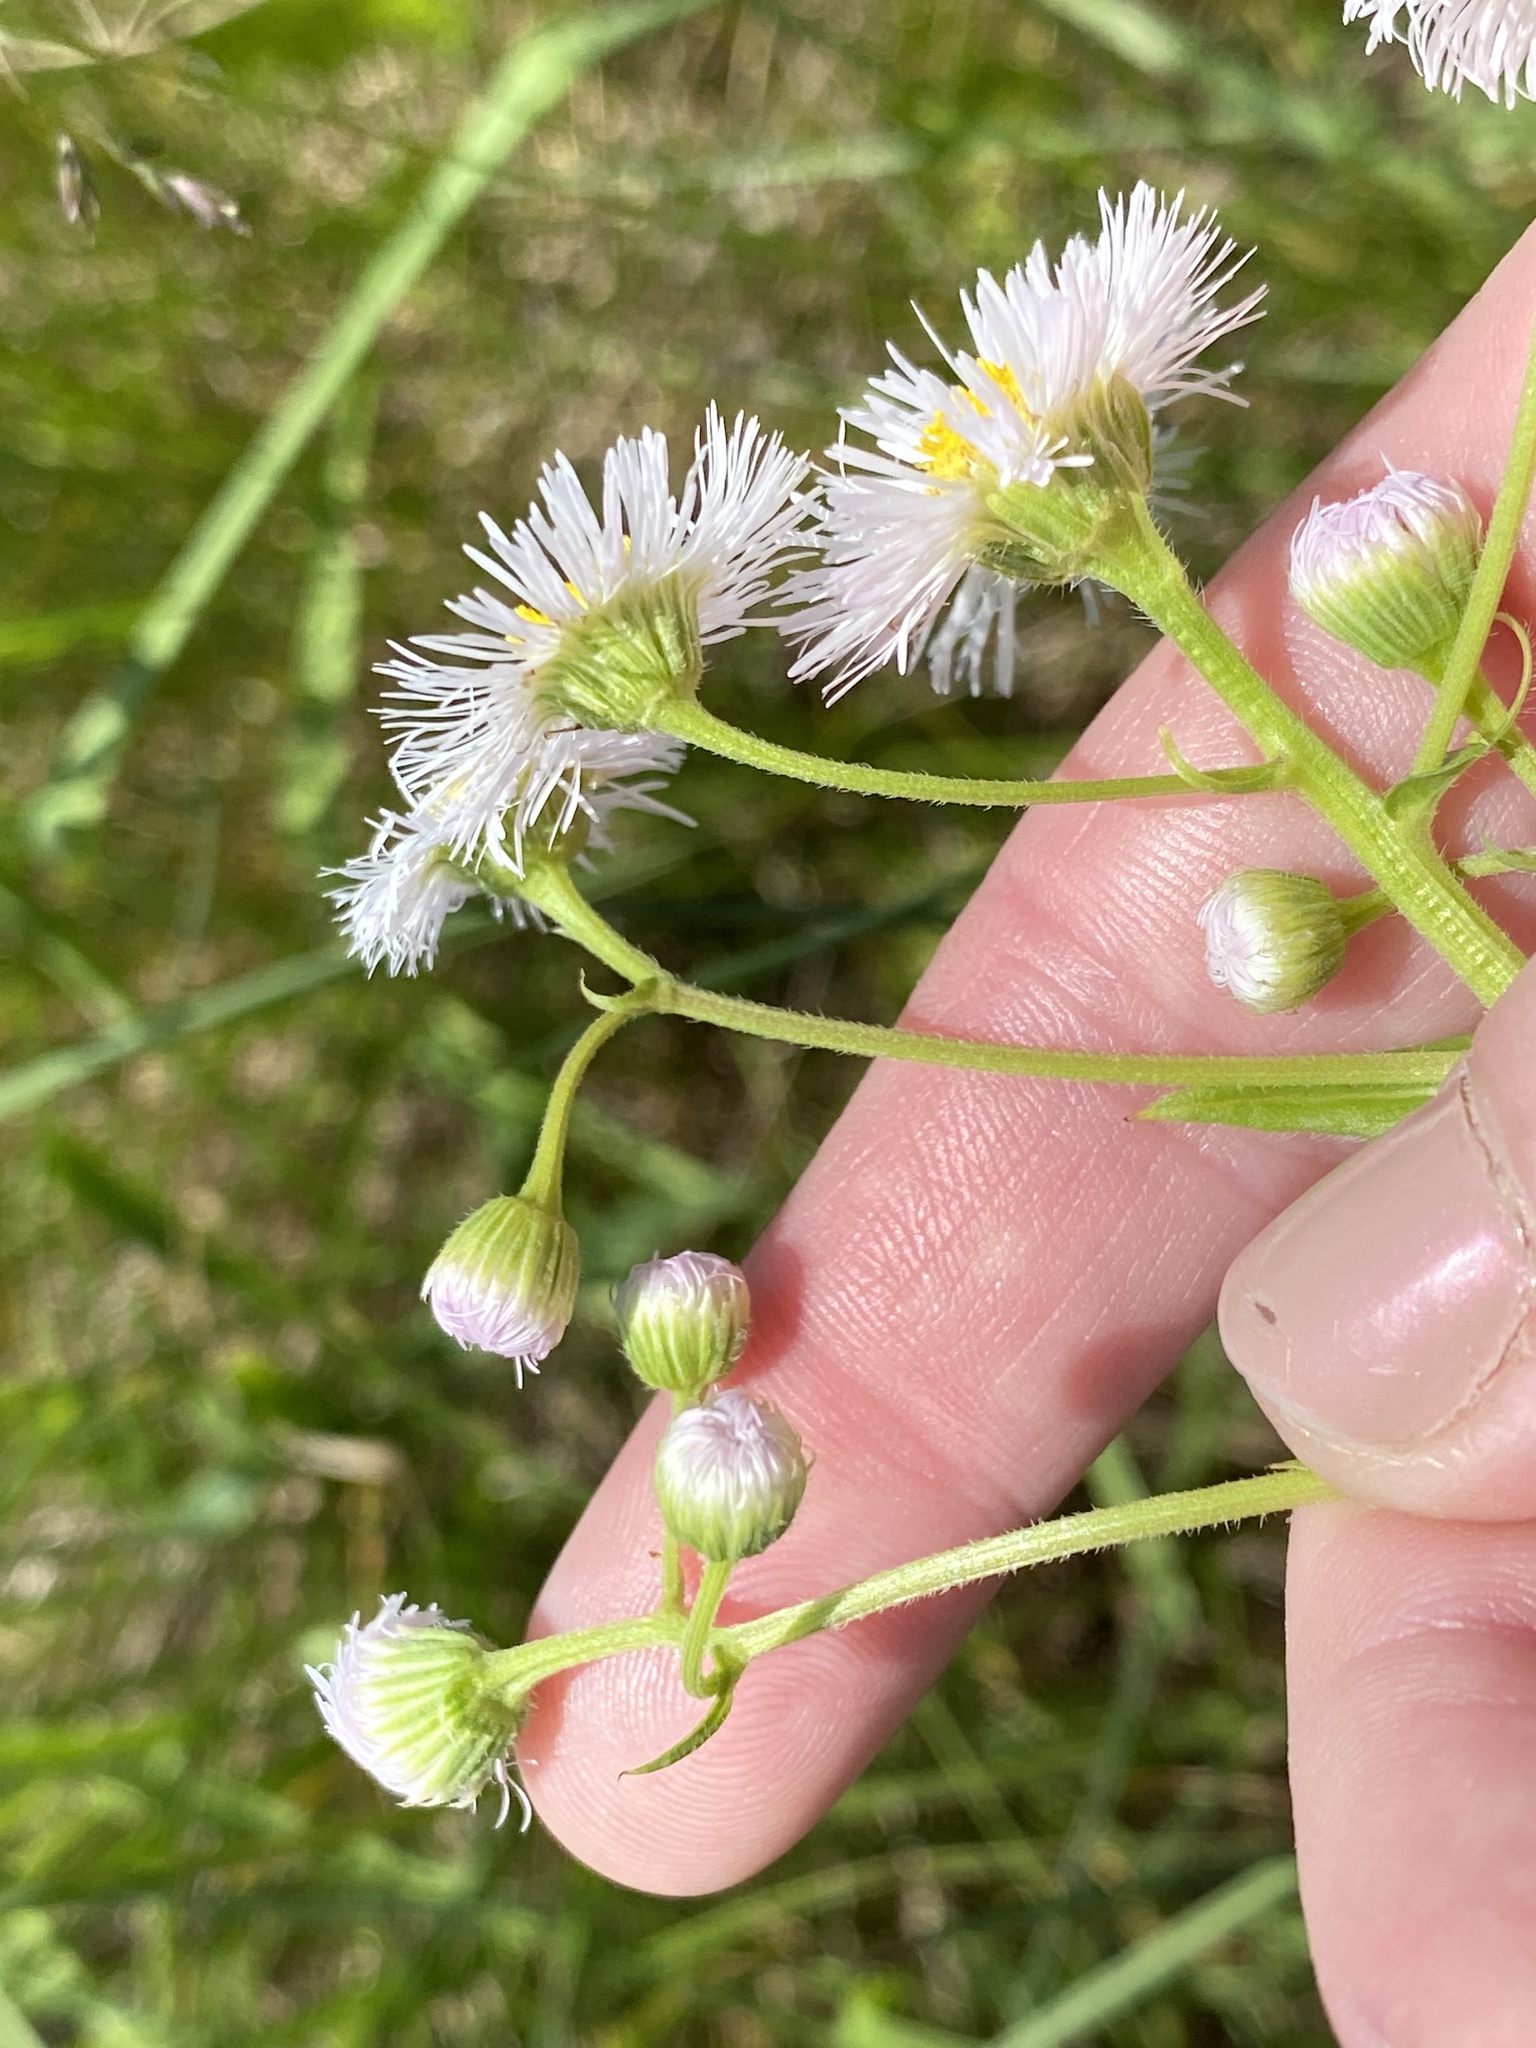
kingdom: Plantae
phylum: Tracheophyta
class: Magnoliopsida
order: Asterales
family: Asteraceae
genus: Erigeron
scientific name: Erigeron philadelphicus
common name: Robin's-plantain
